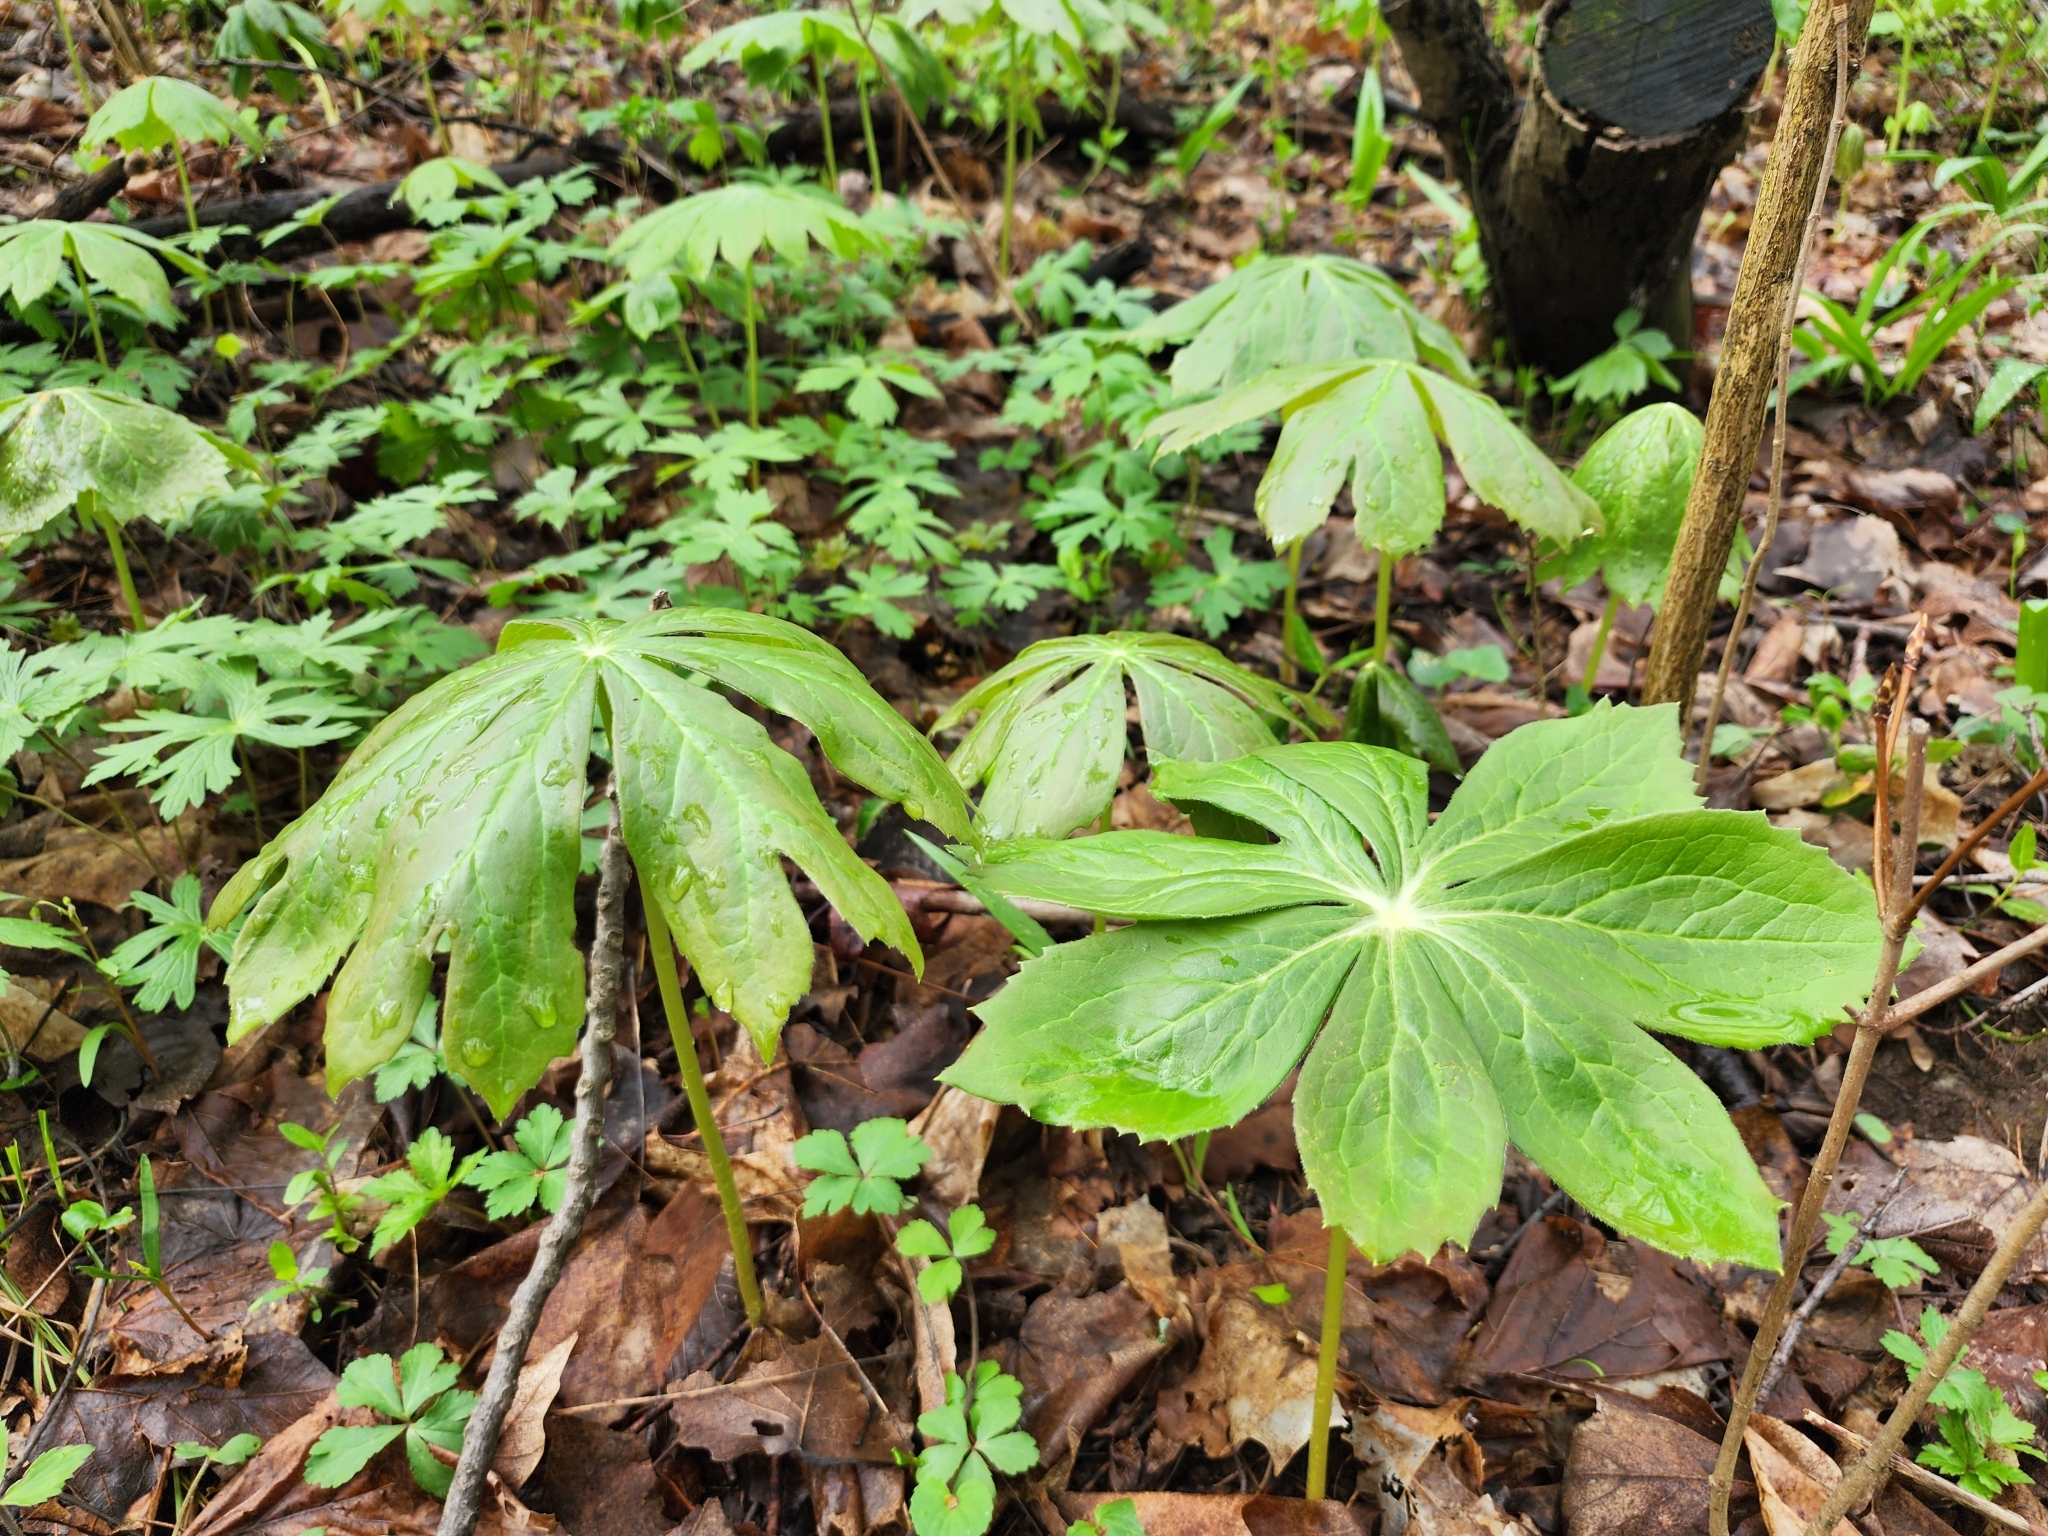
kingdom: Plantae
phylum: Tracheophyta
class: Magnoliopsida
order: Ranunculales
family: Berberidaceae
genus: Podophyllum
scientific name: Podophyllum peltatum
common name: Wild mandrake
